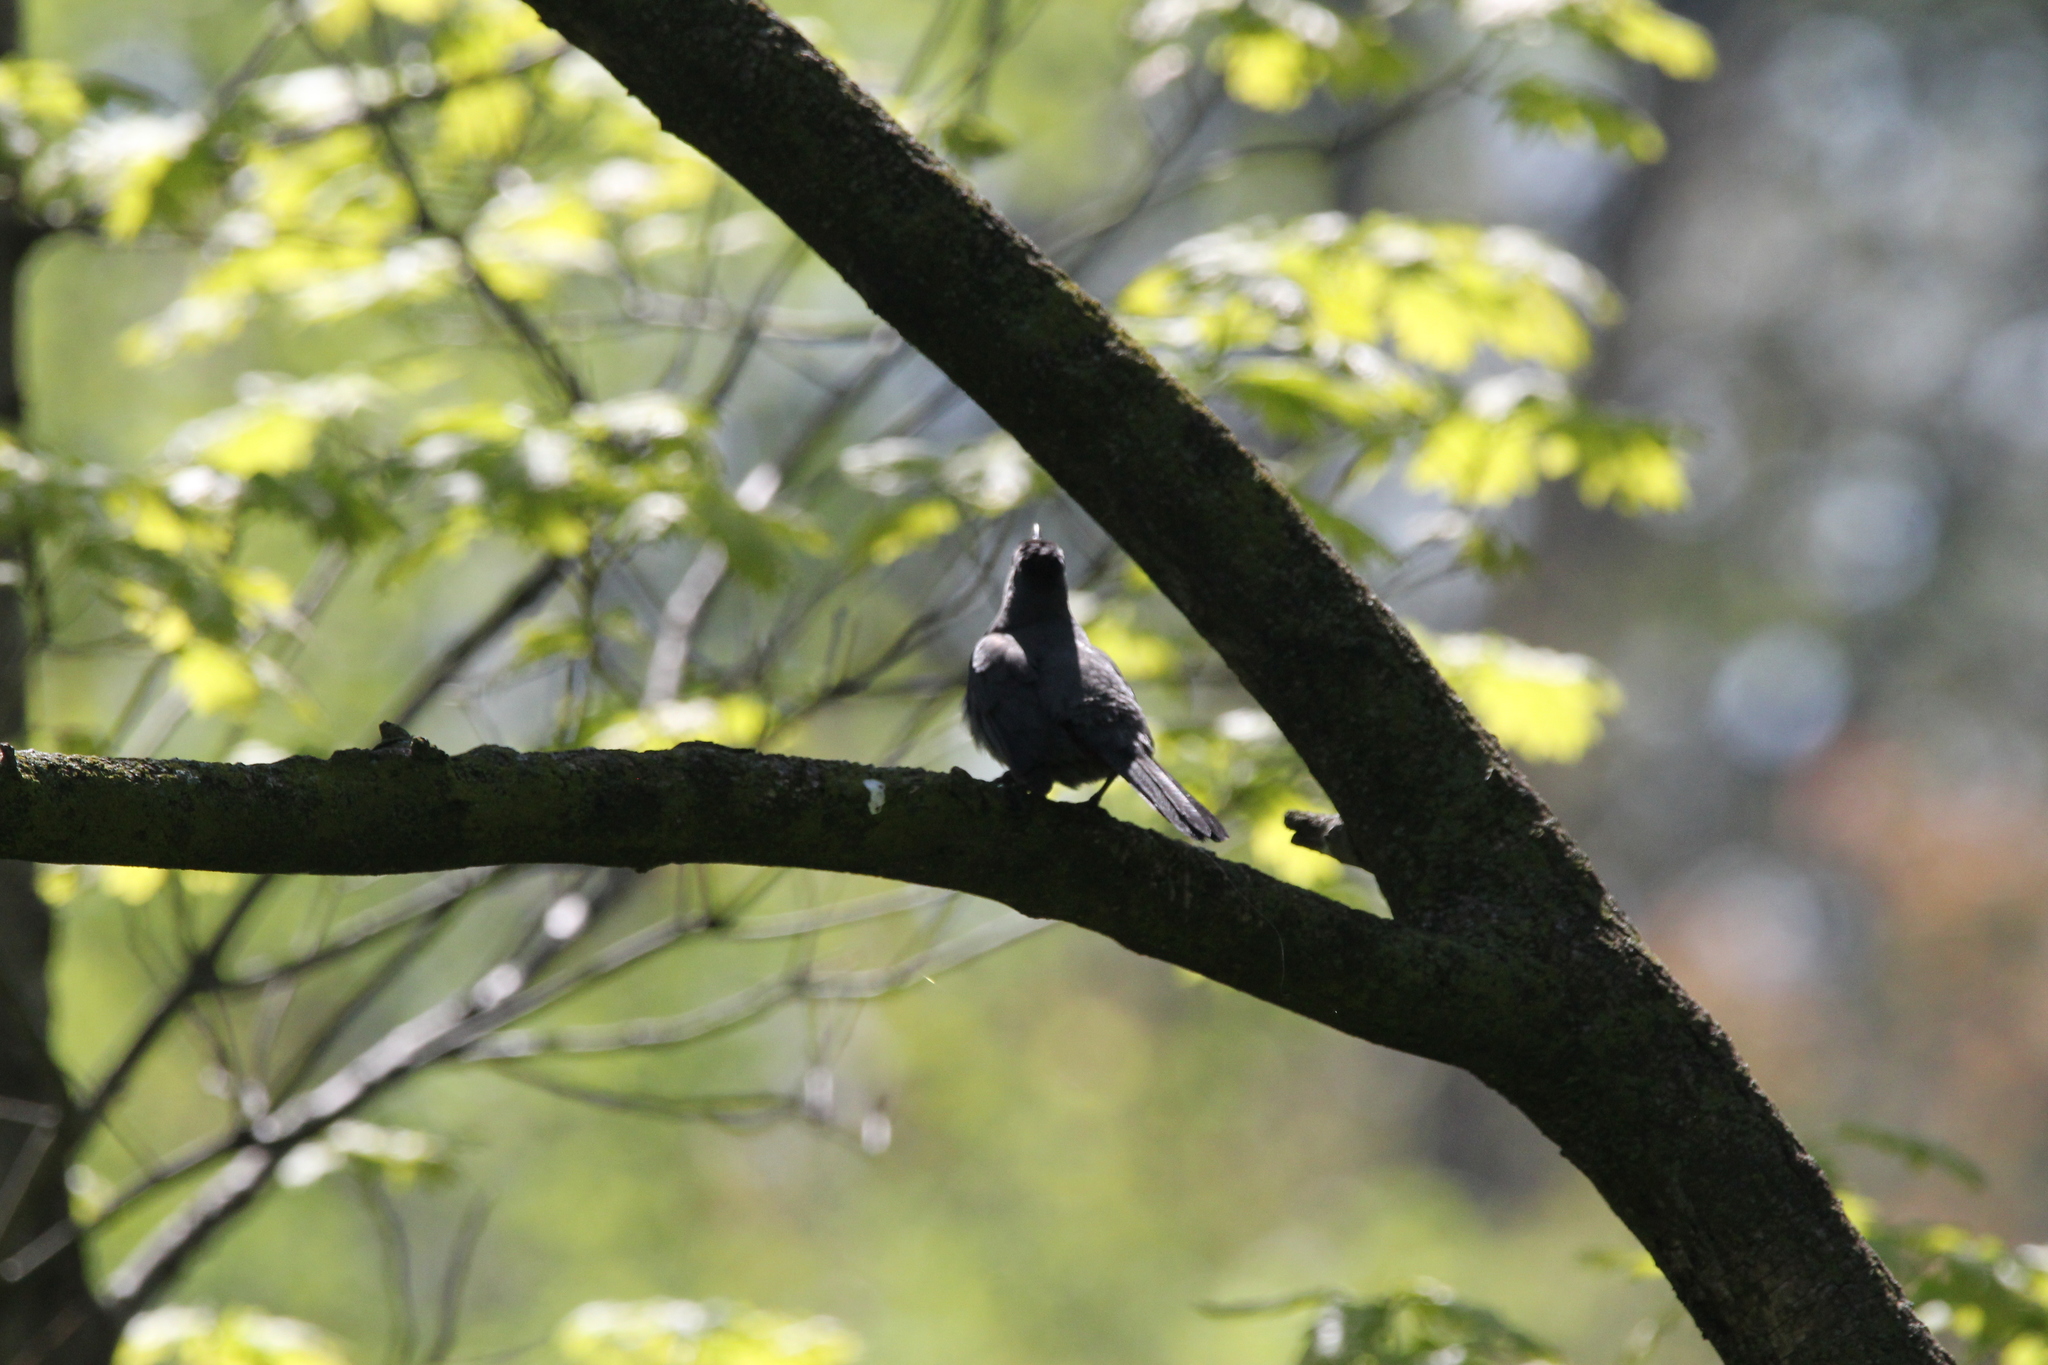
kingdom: Animalia
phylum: Chordata
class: Aves
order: Passeriformes
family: Mimidae
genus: Dumetella
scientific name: Dumetella carolinensis
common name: Gray catbird
